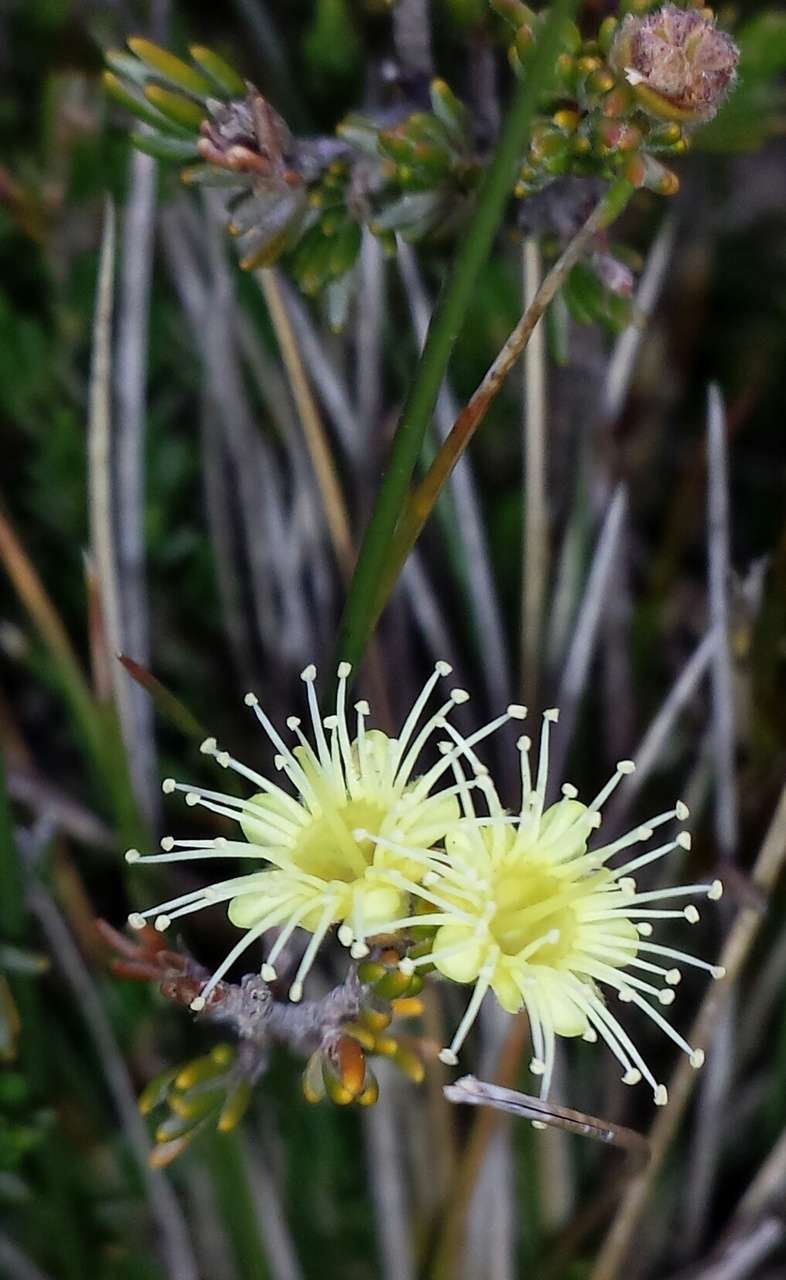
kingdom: Plantae
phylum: Tracheophyta
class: Magnoliopsida
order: Myrtales
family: Myrtaceae
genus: Kunzea
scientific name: Kunzea muelleri
